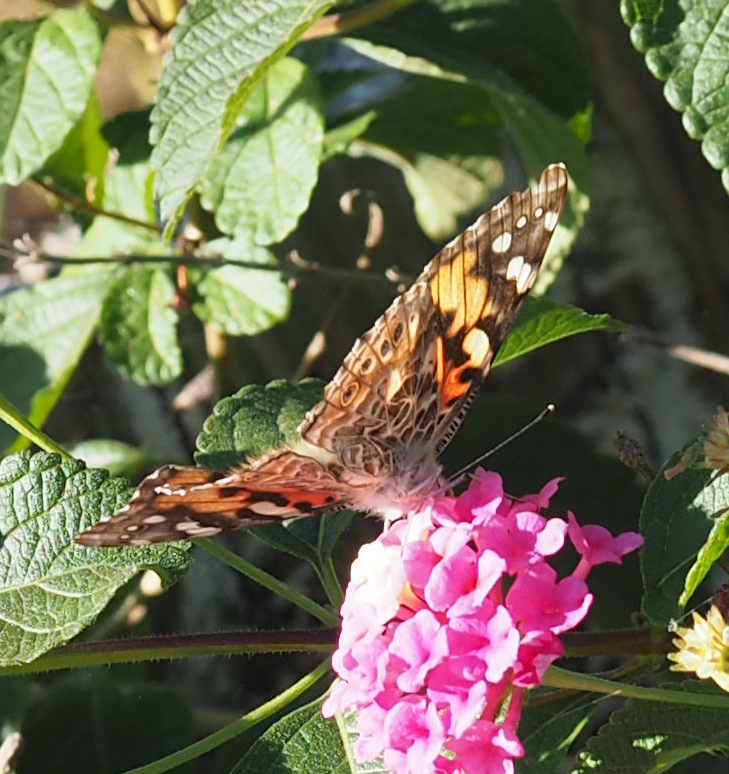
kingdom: Animalia
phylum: Arthropoda
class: Insecta
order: Lepidoptera
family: Nymphalidae
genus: Vanessa
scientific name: Vanessa cardui
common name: Painted lady
